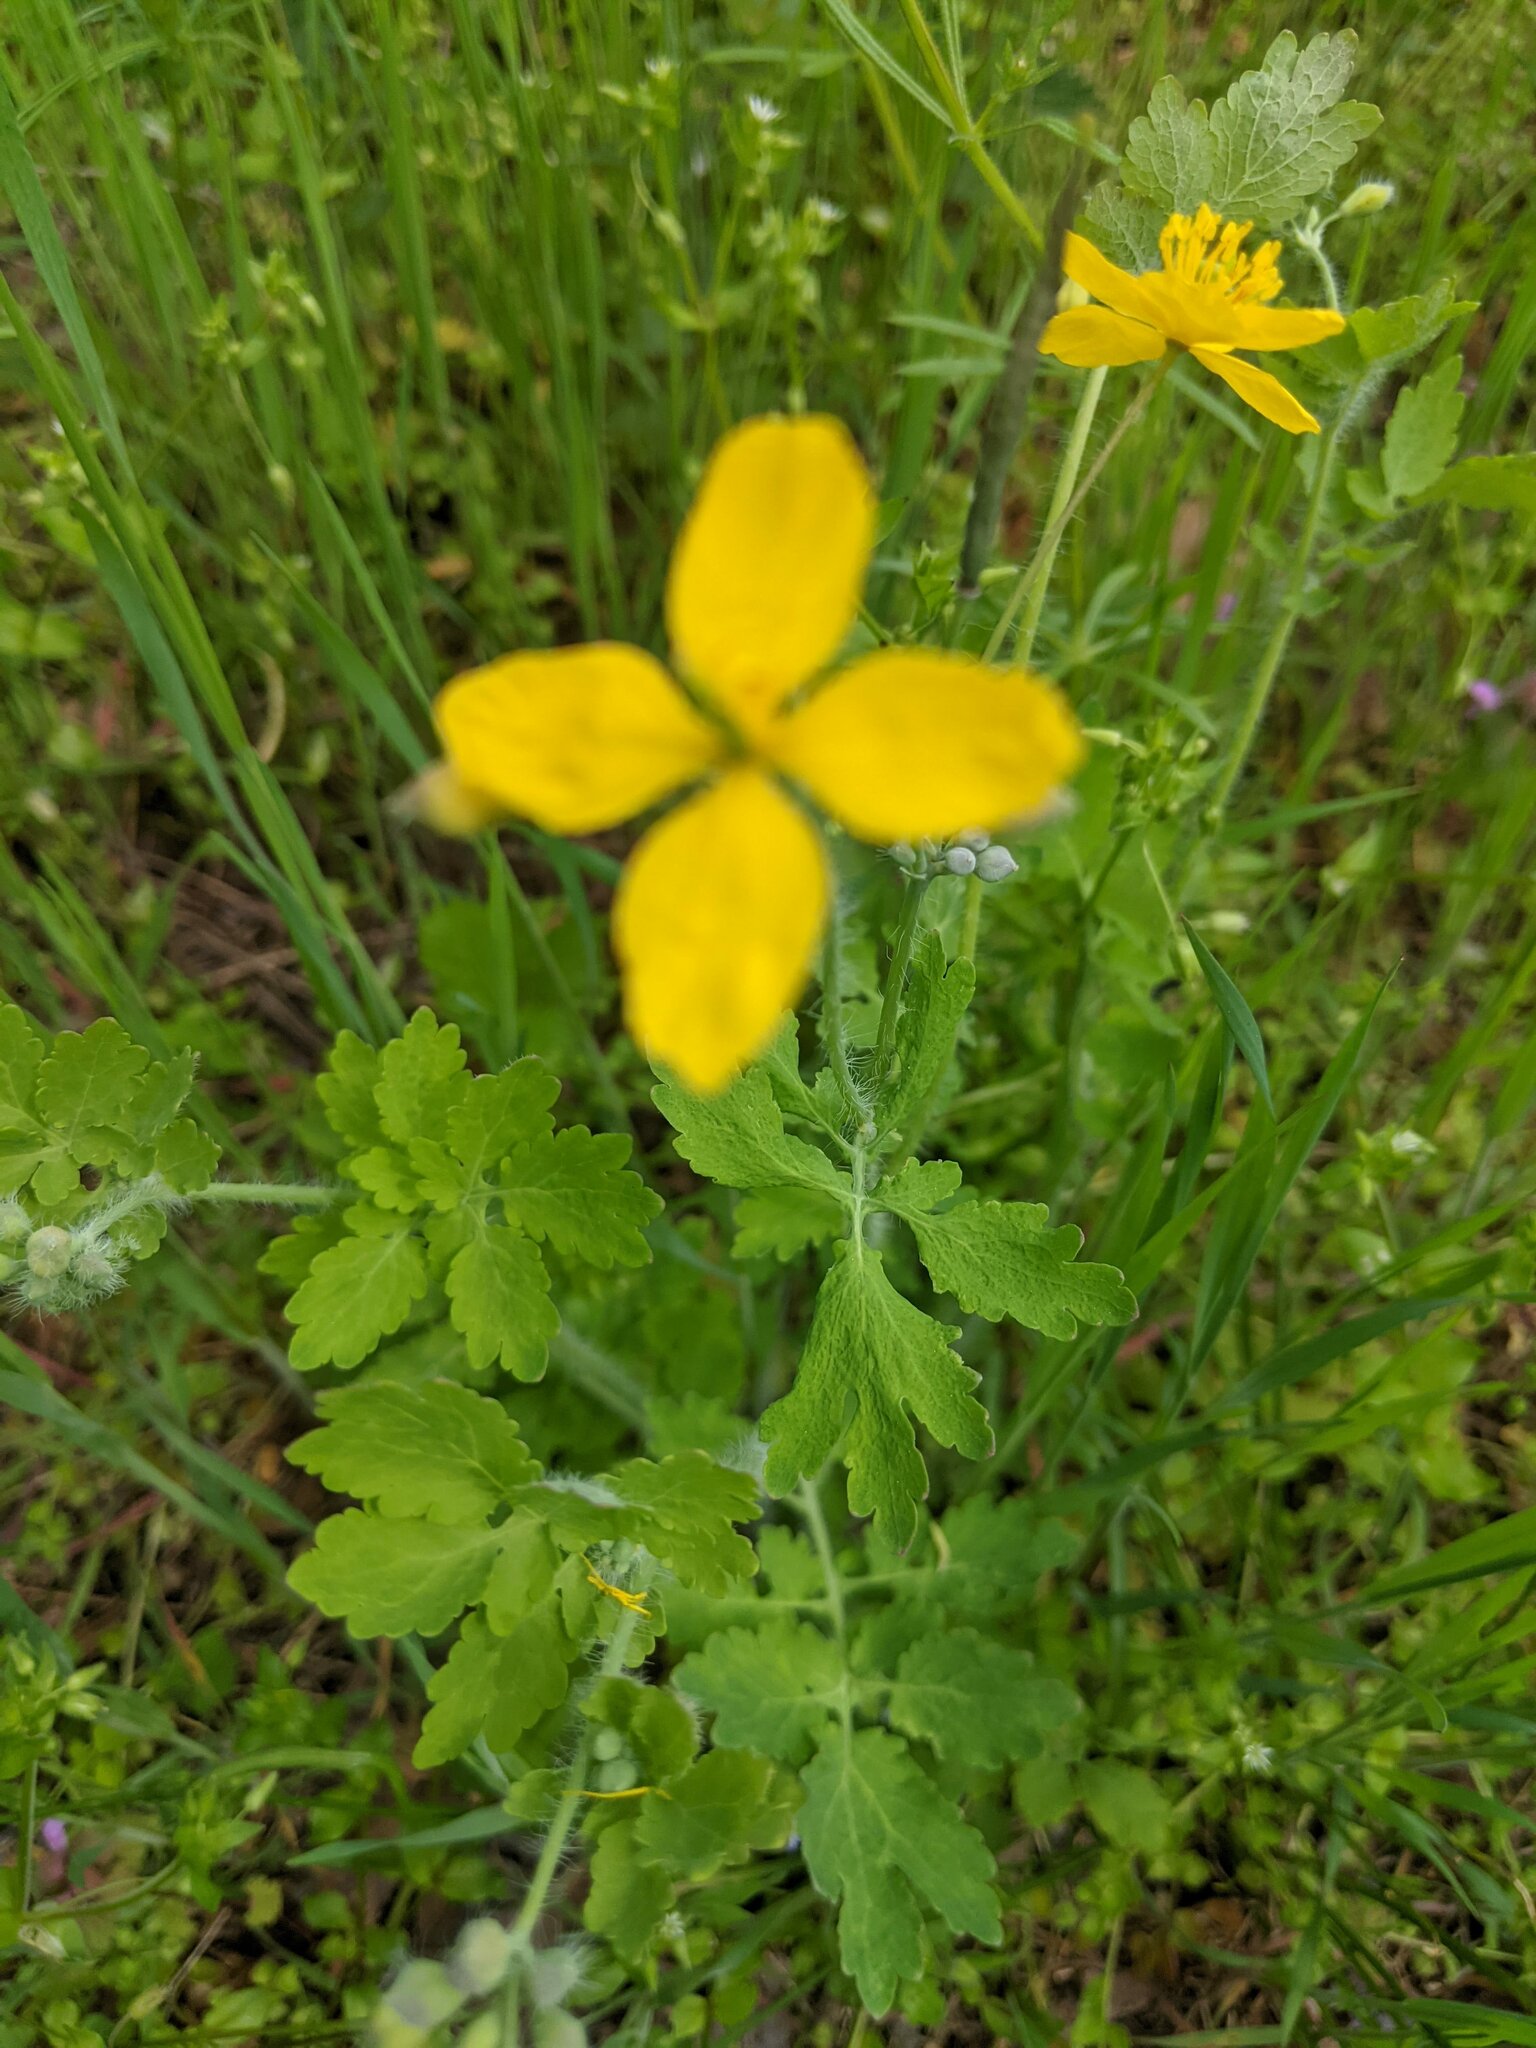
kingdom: Plantae
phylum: Tracheophyta
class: Magnoliopsida
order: Ranunculales
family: Papaveraceae
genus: Chelidonium
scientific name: Chelidonium majus
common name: Greater celandine
